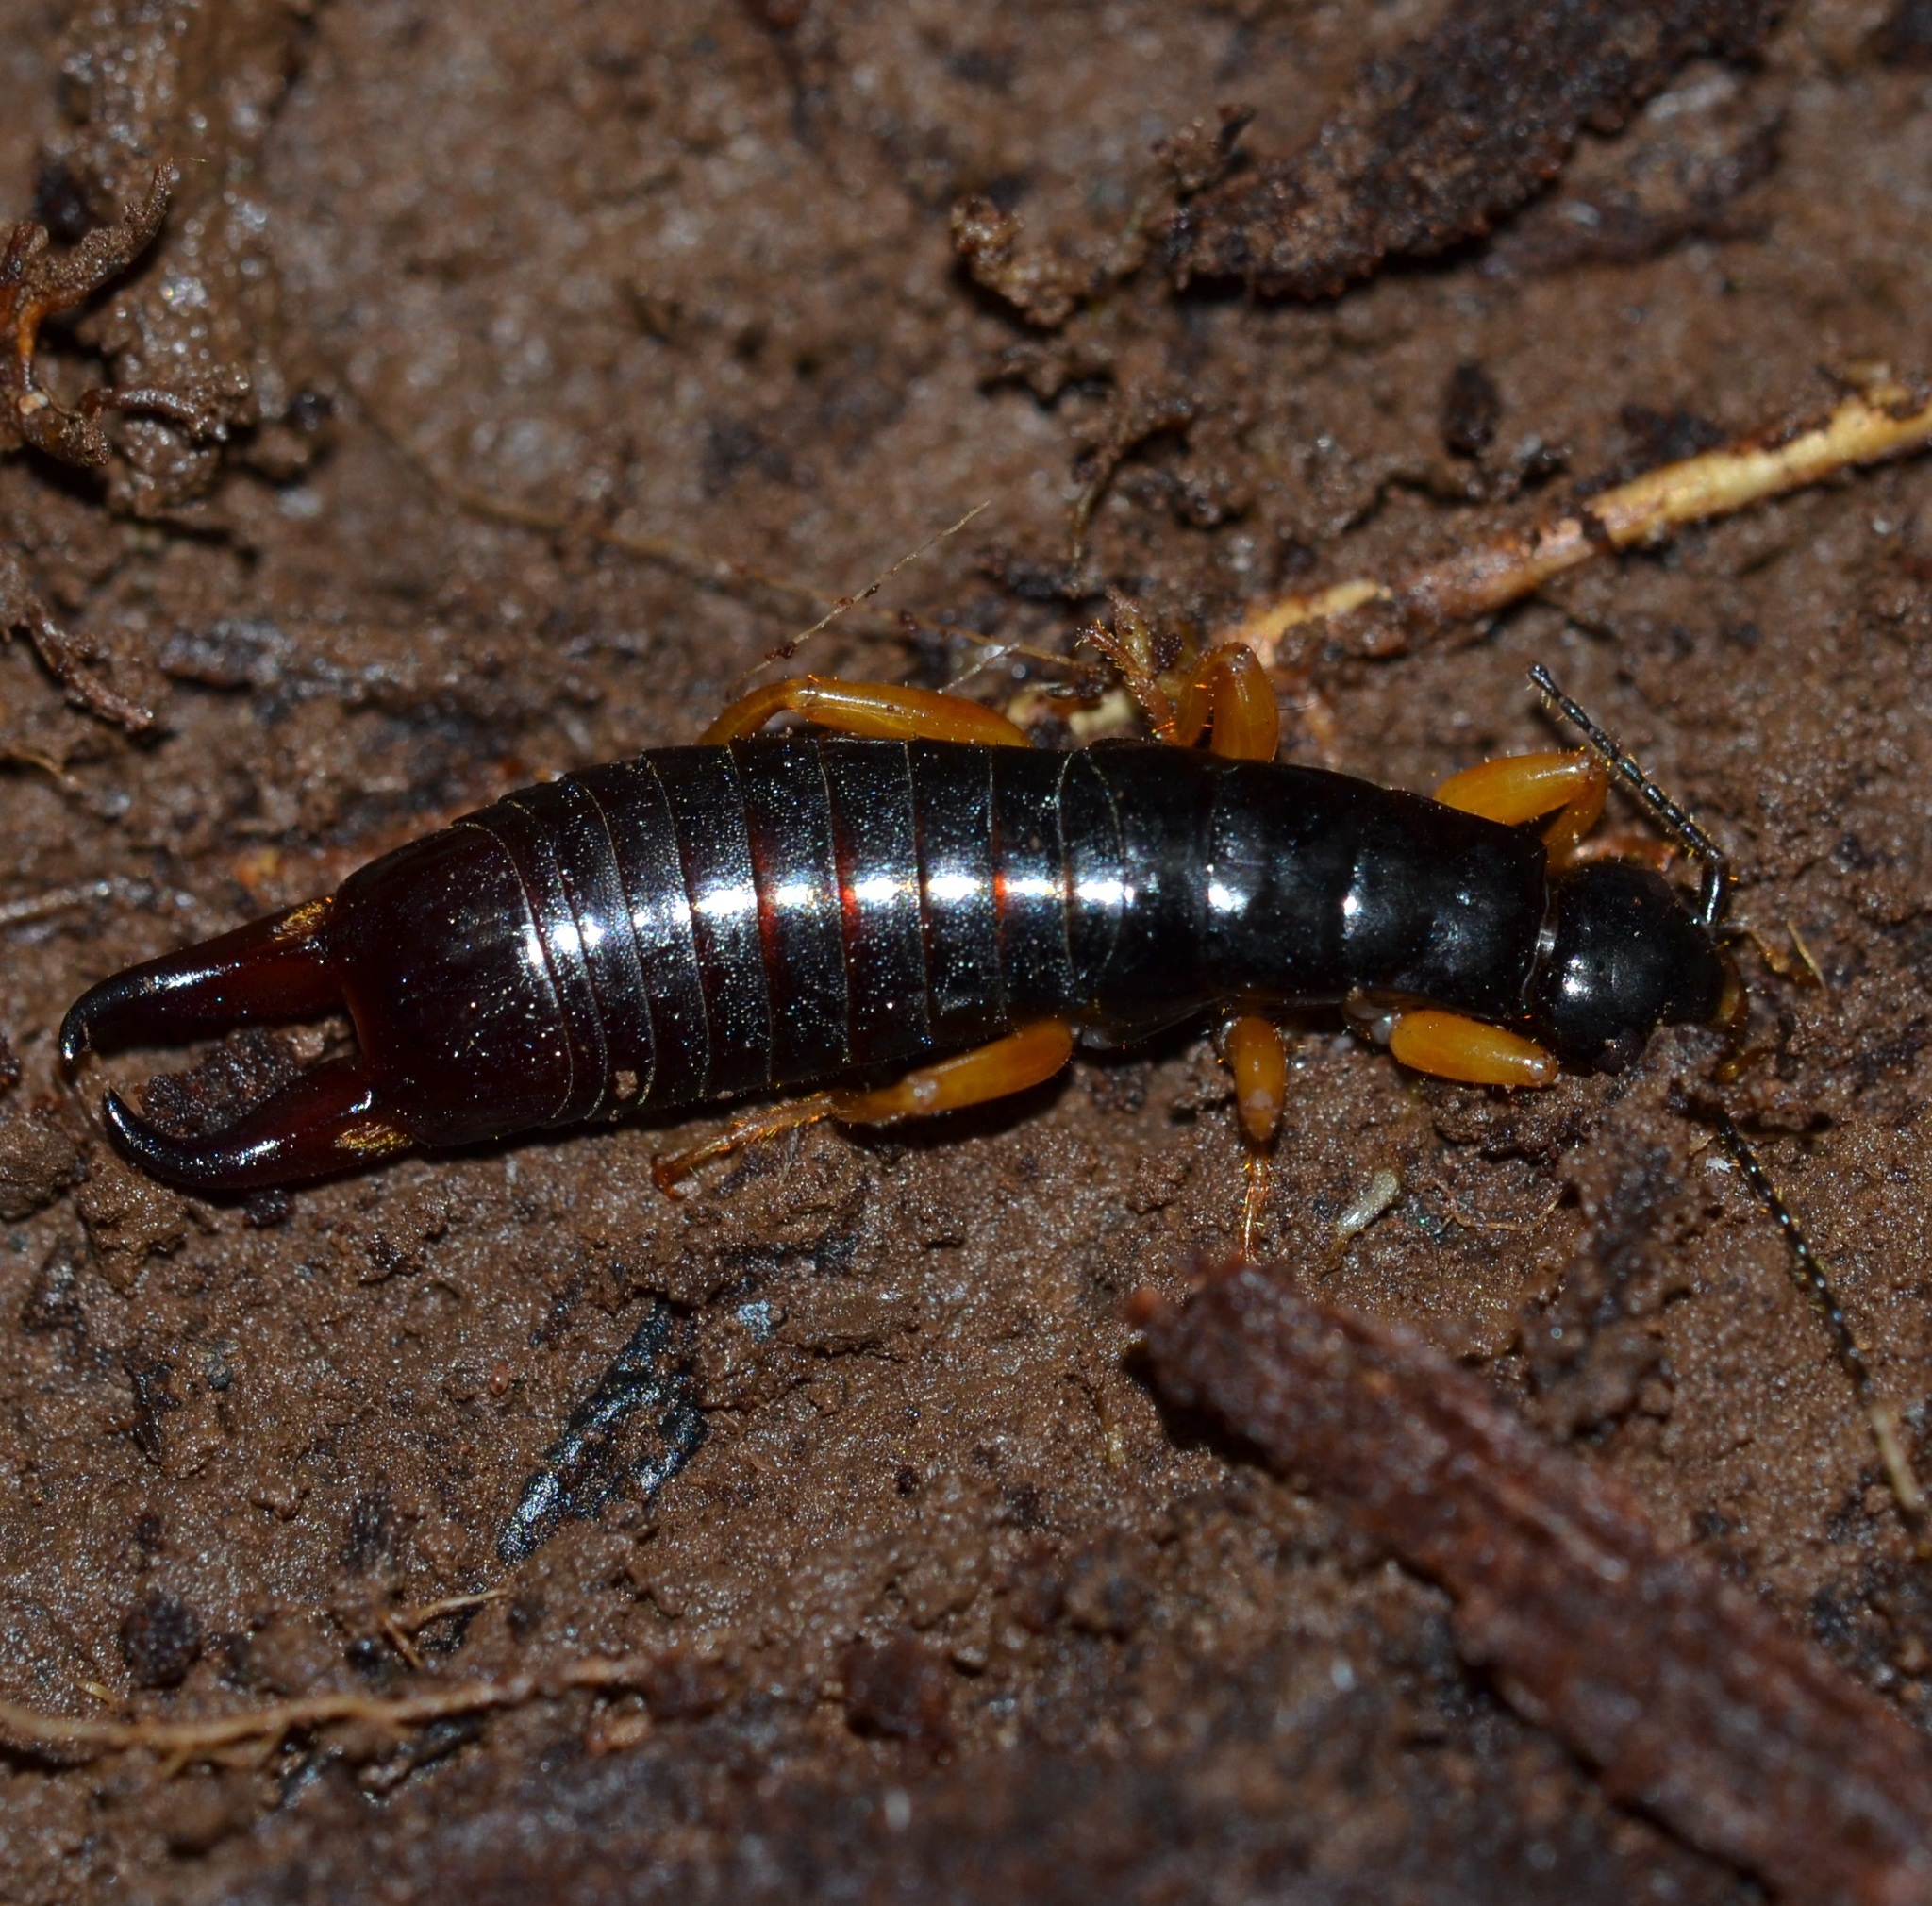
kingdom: Animalia
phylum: Arthropoda
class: Insecta
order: Dermaptera
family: Anisolabididae
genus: Euborellia
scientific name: Euborellia eteronoma
